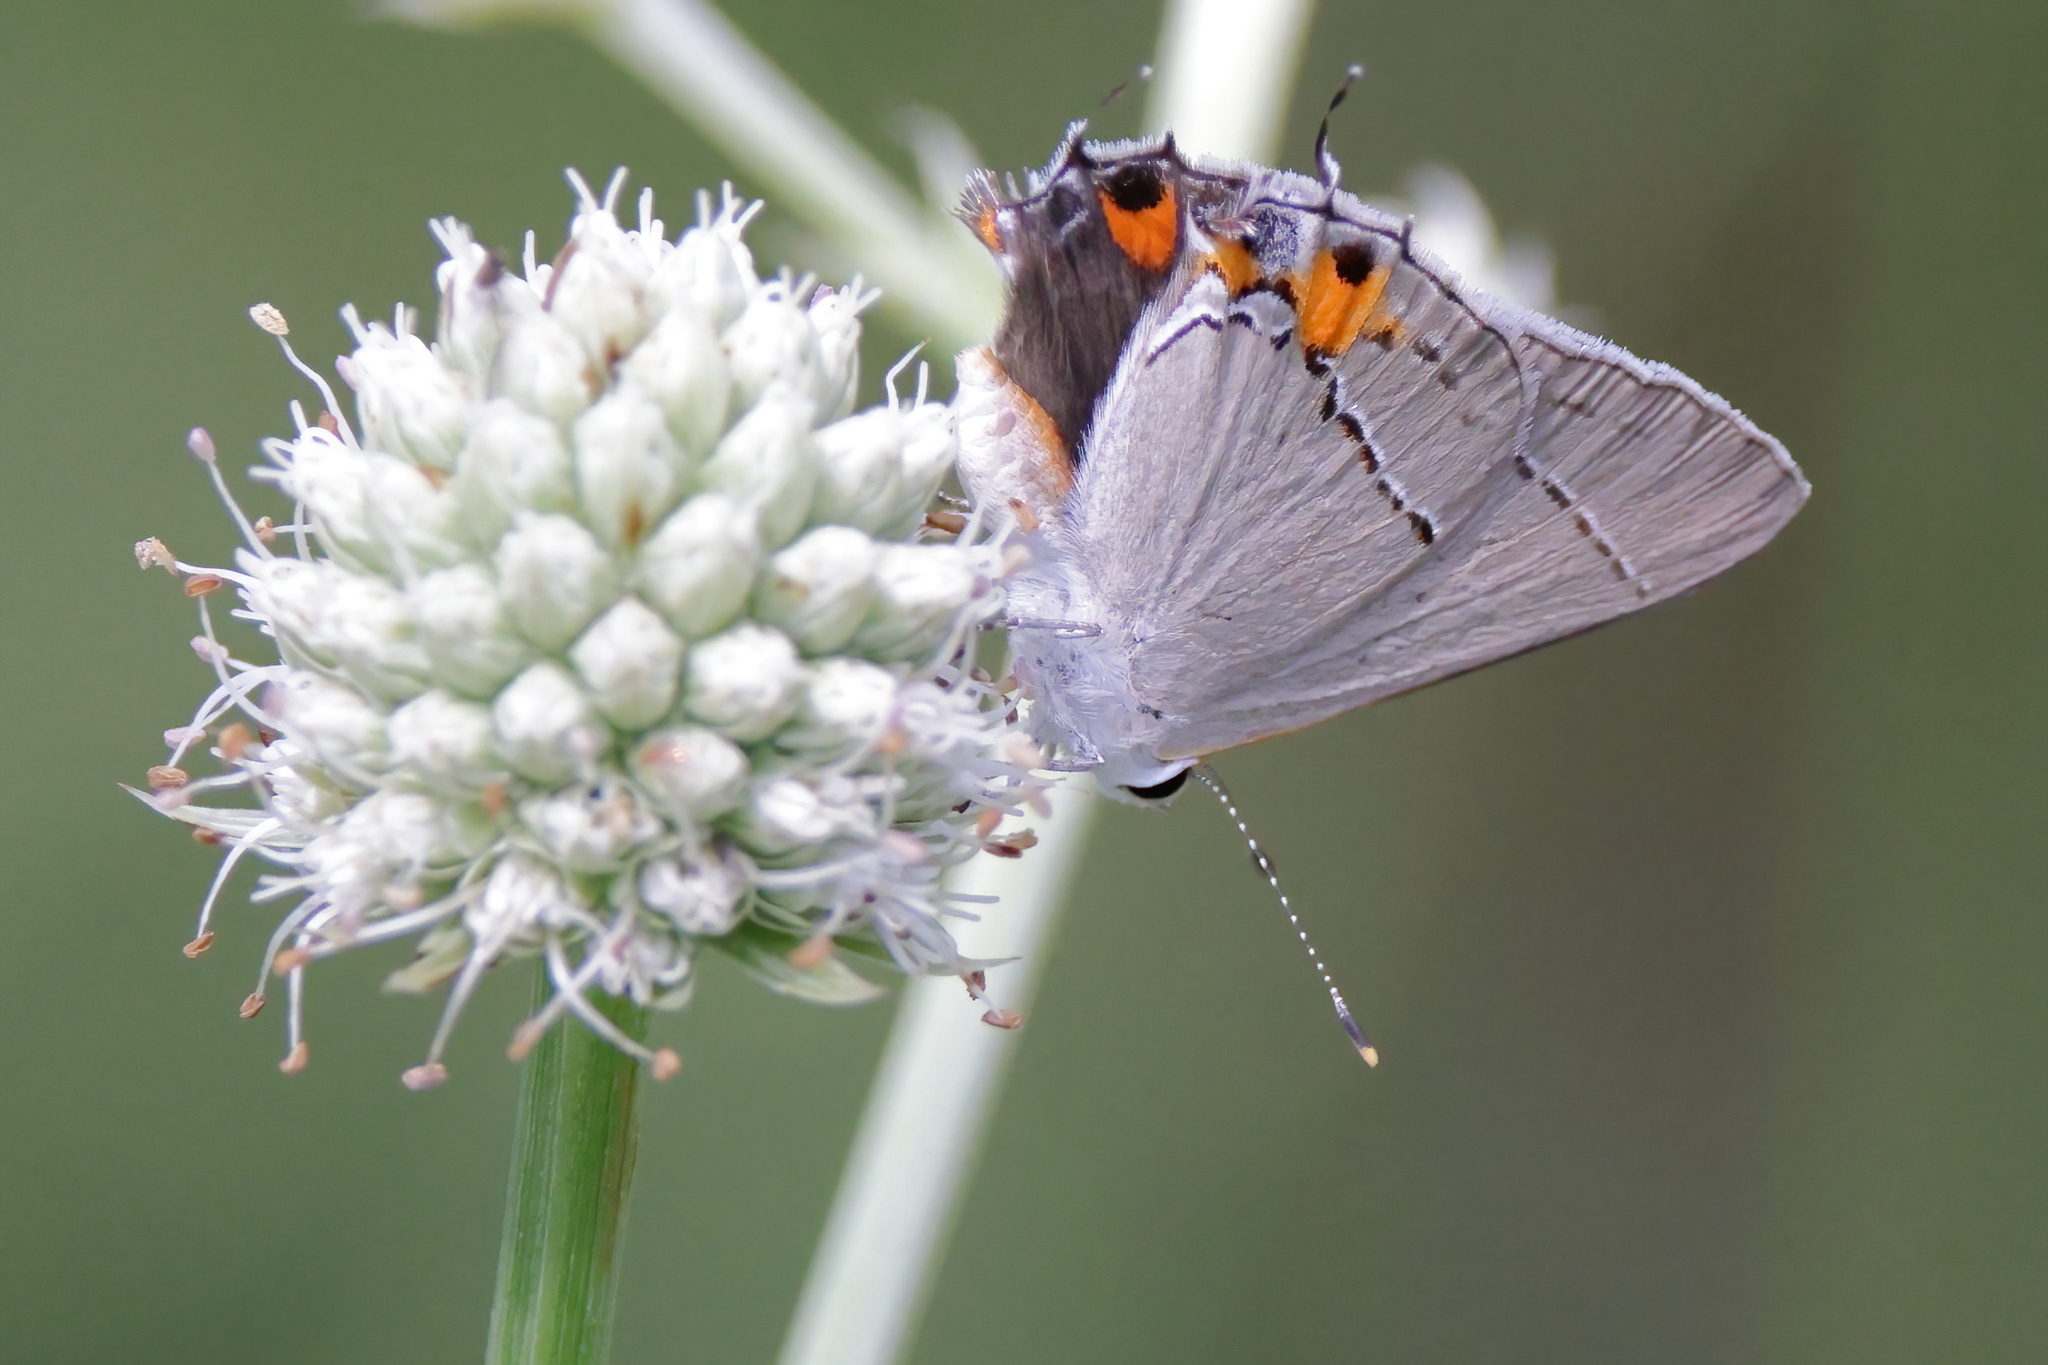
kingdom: Animalia
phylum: Arthropoda
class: Insecta
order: Lepidoptera
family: Lycaenidae
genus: Strymon
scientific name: Strymon melinus
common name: Gray hairstreak
